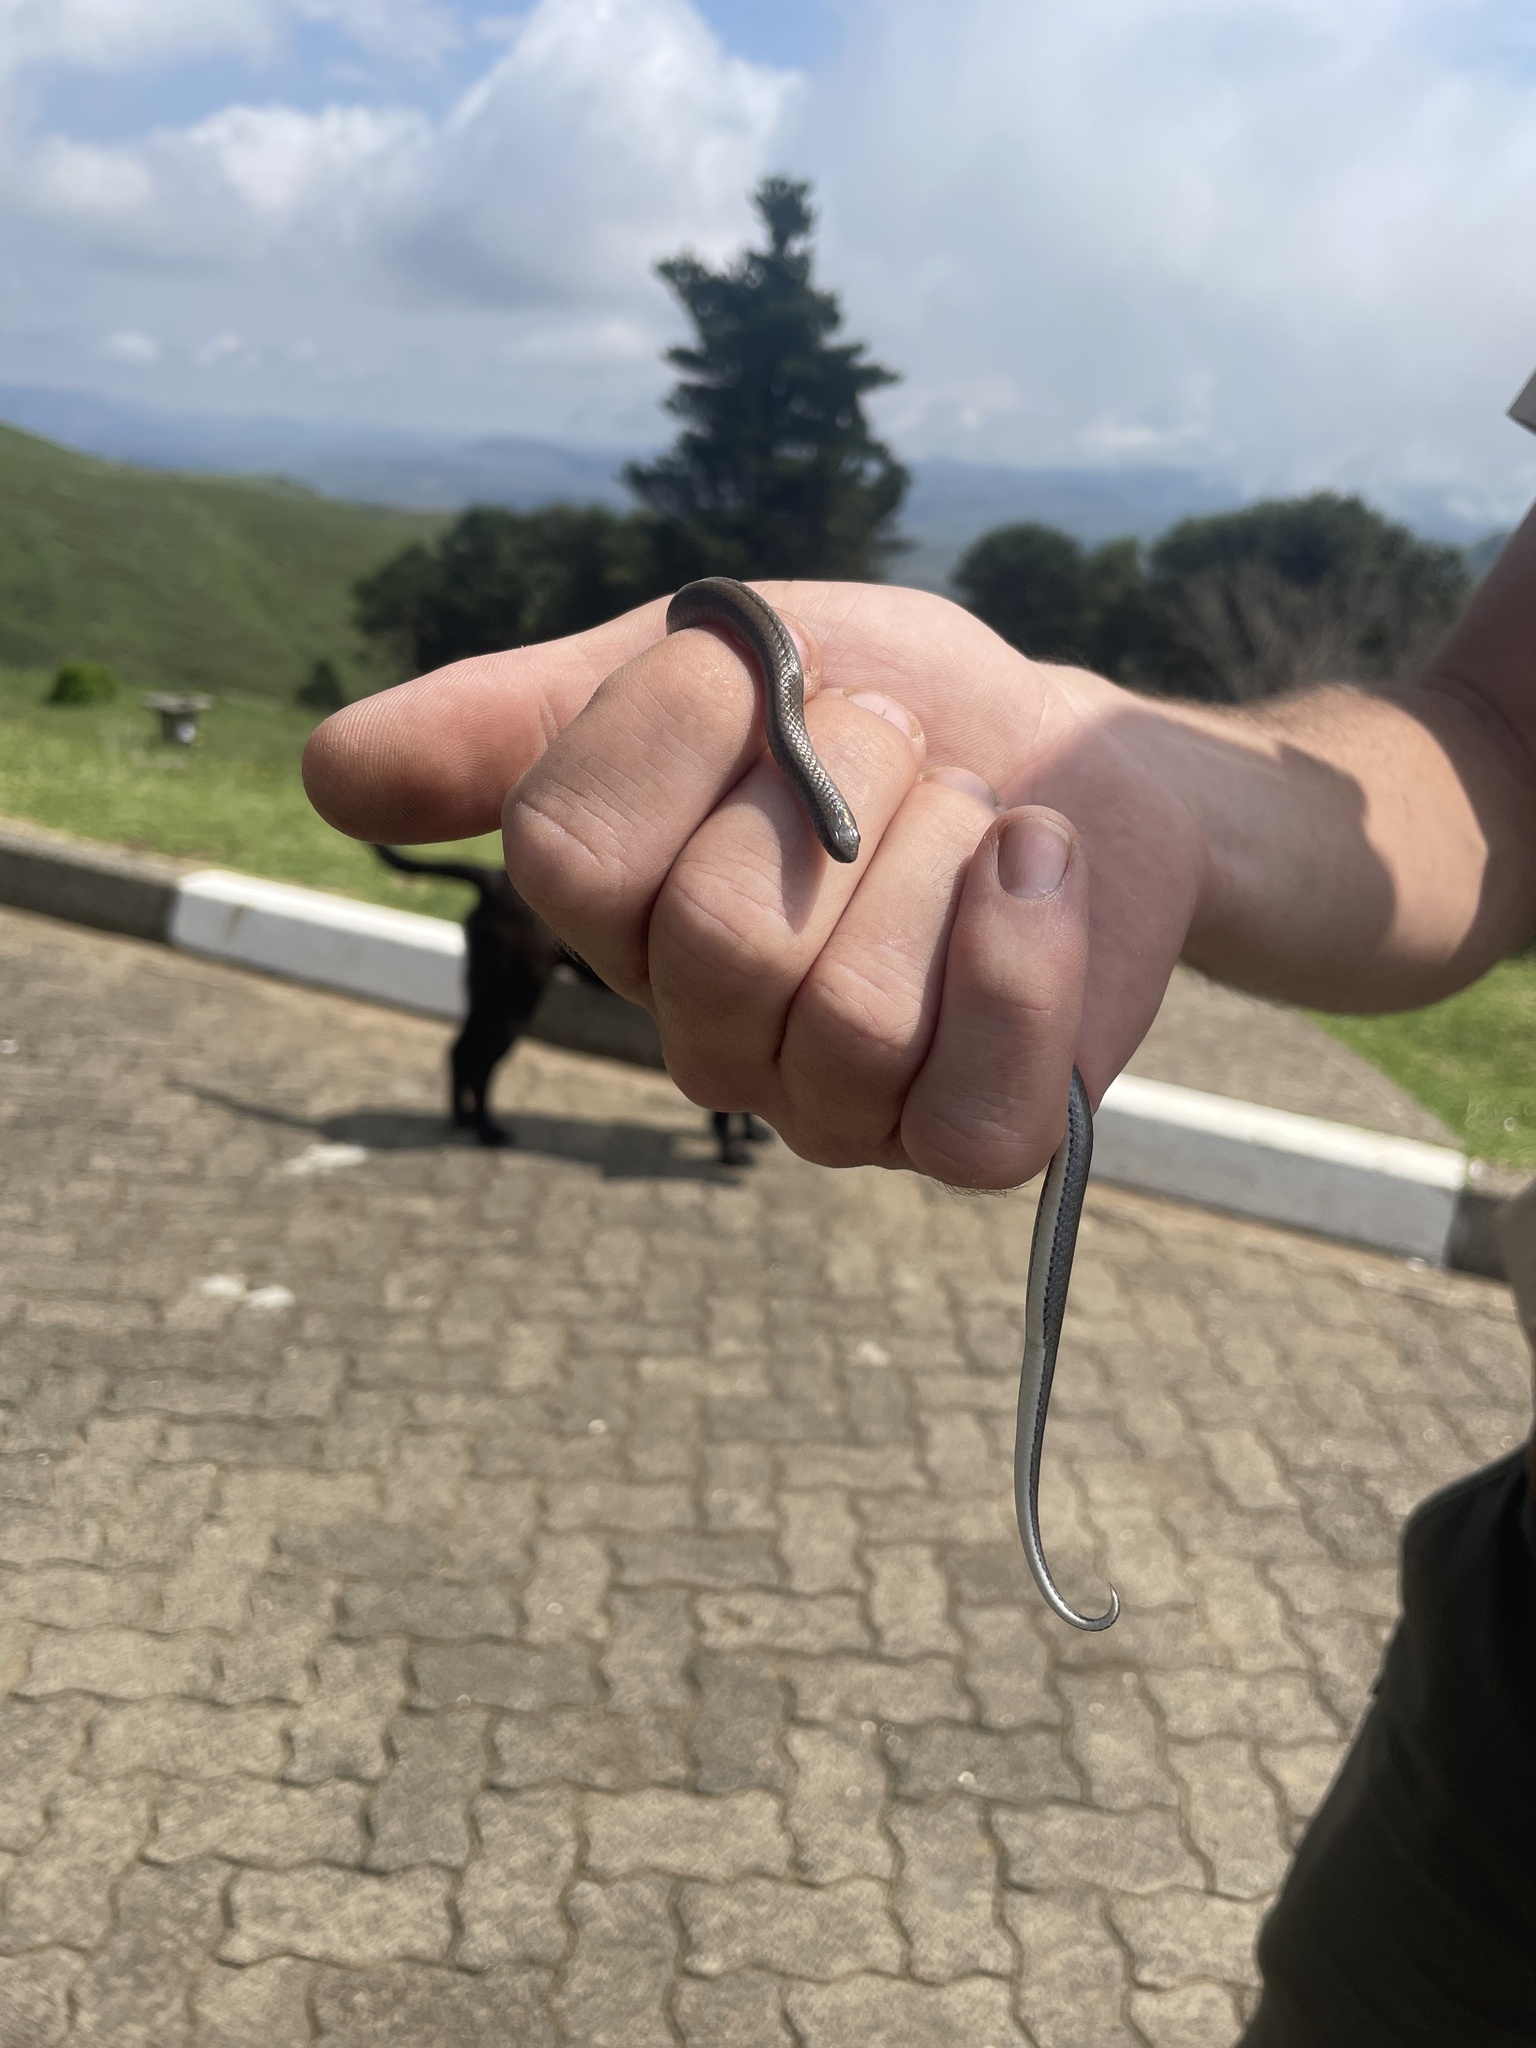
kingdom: Animalia
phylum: Chordata
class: Squamata
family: Pseudoxyrhophiidae
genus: Duberria
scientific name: Duberria lutrix
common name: Common slug eater
